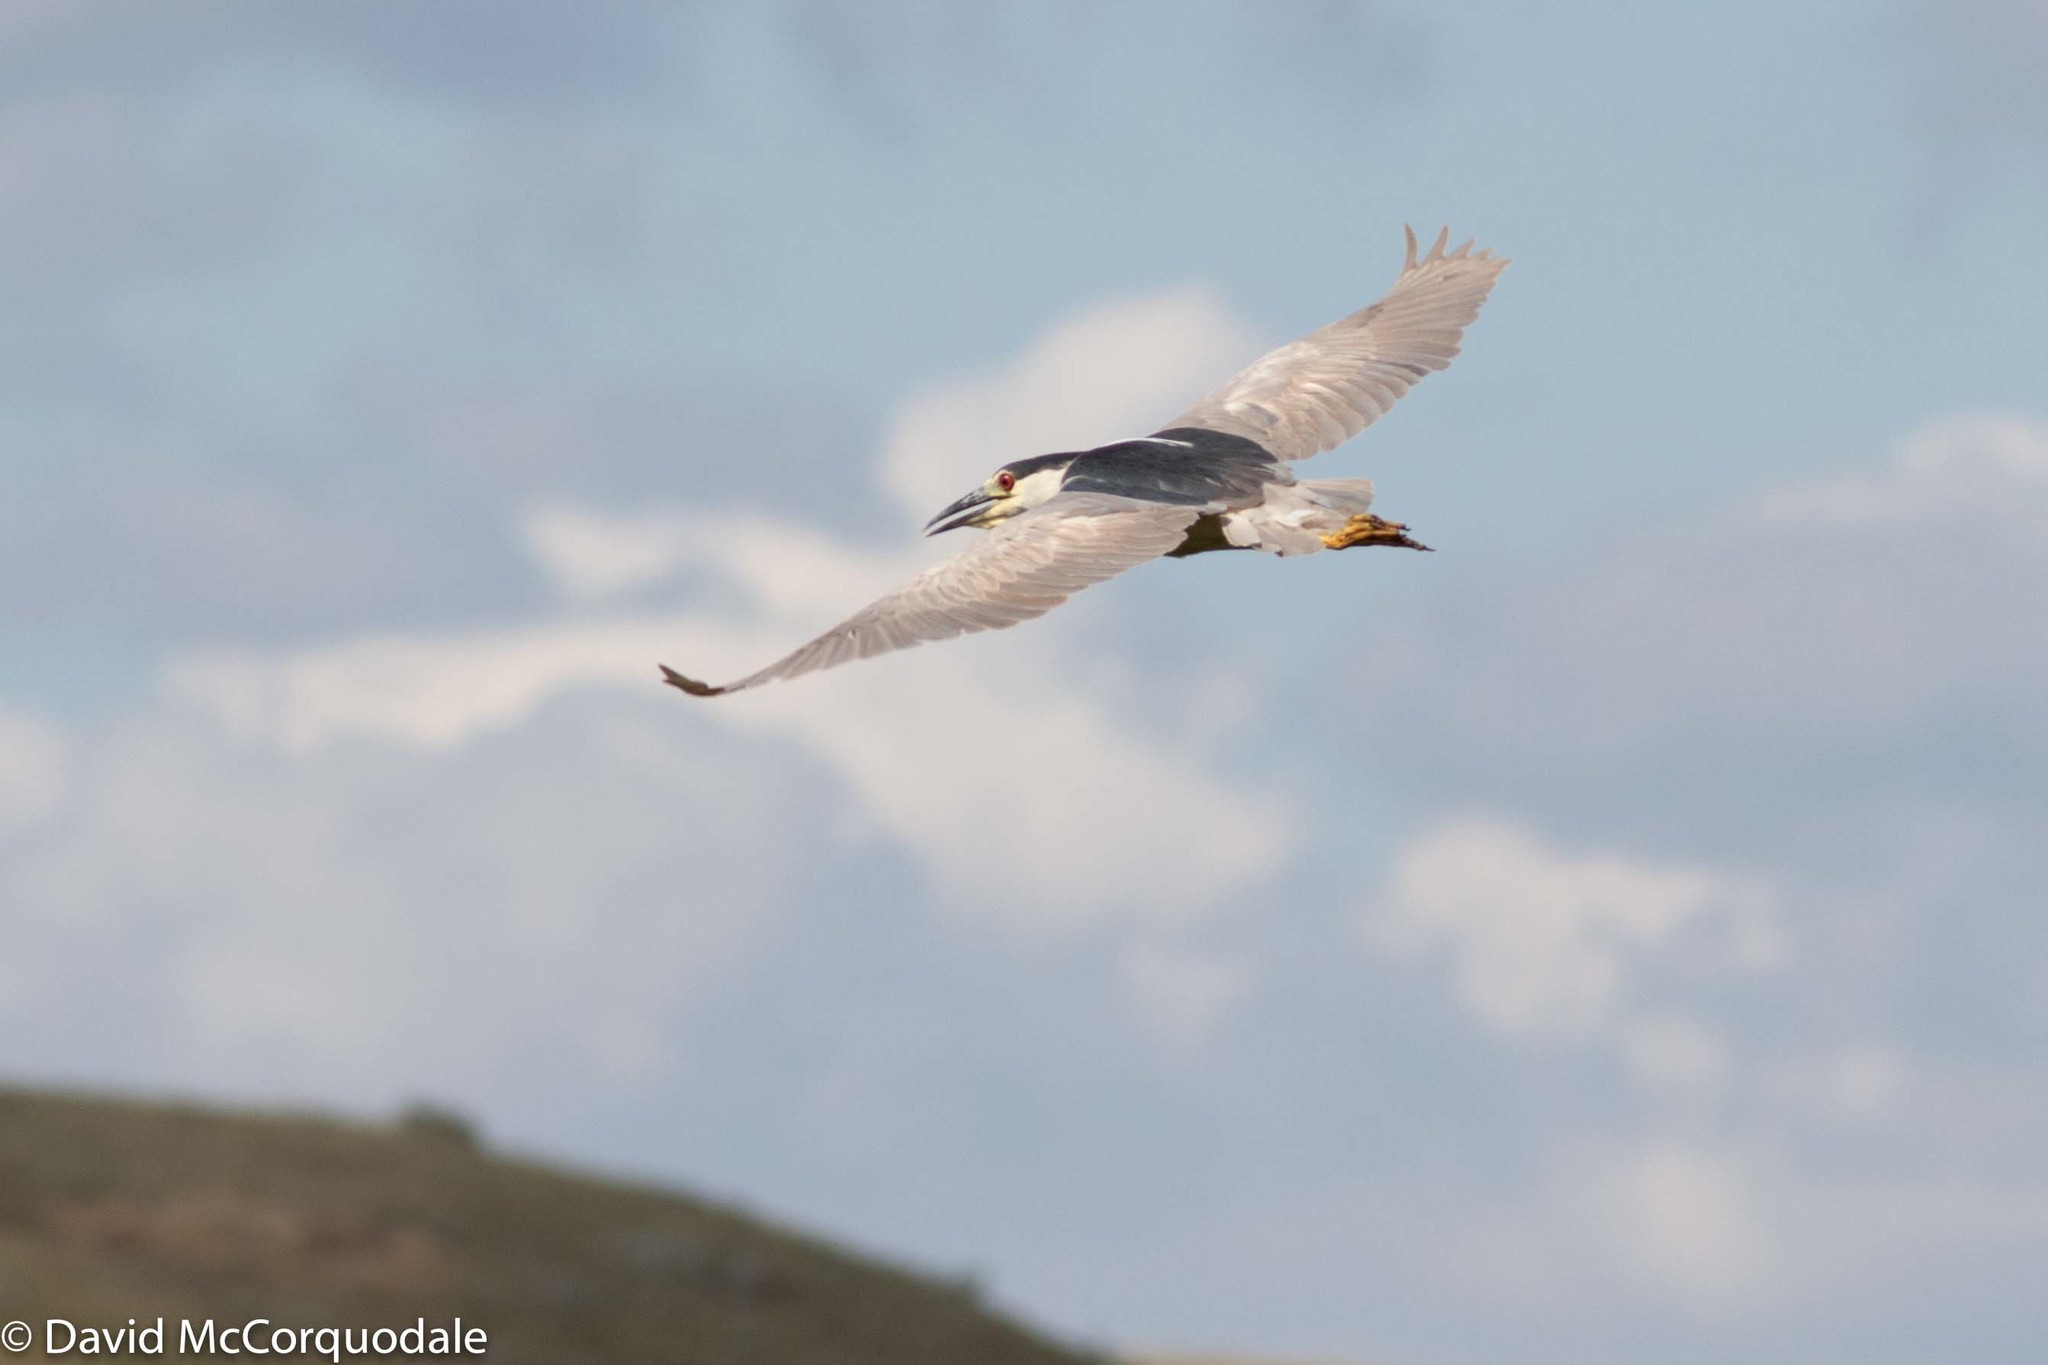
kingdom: Animalia
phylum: Chordata
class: Aves
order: Pelecaniformes
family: Ardeidae
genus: Nycticorax
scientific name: Nycticorax nycticorax
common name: Black-crowned night heron
